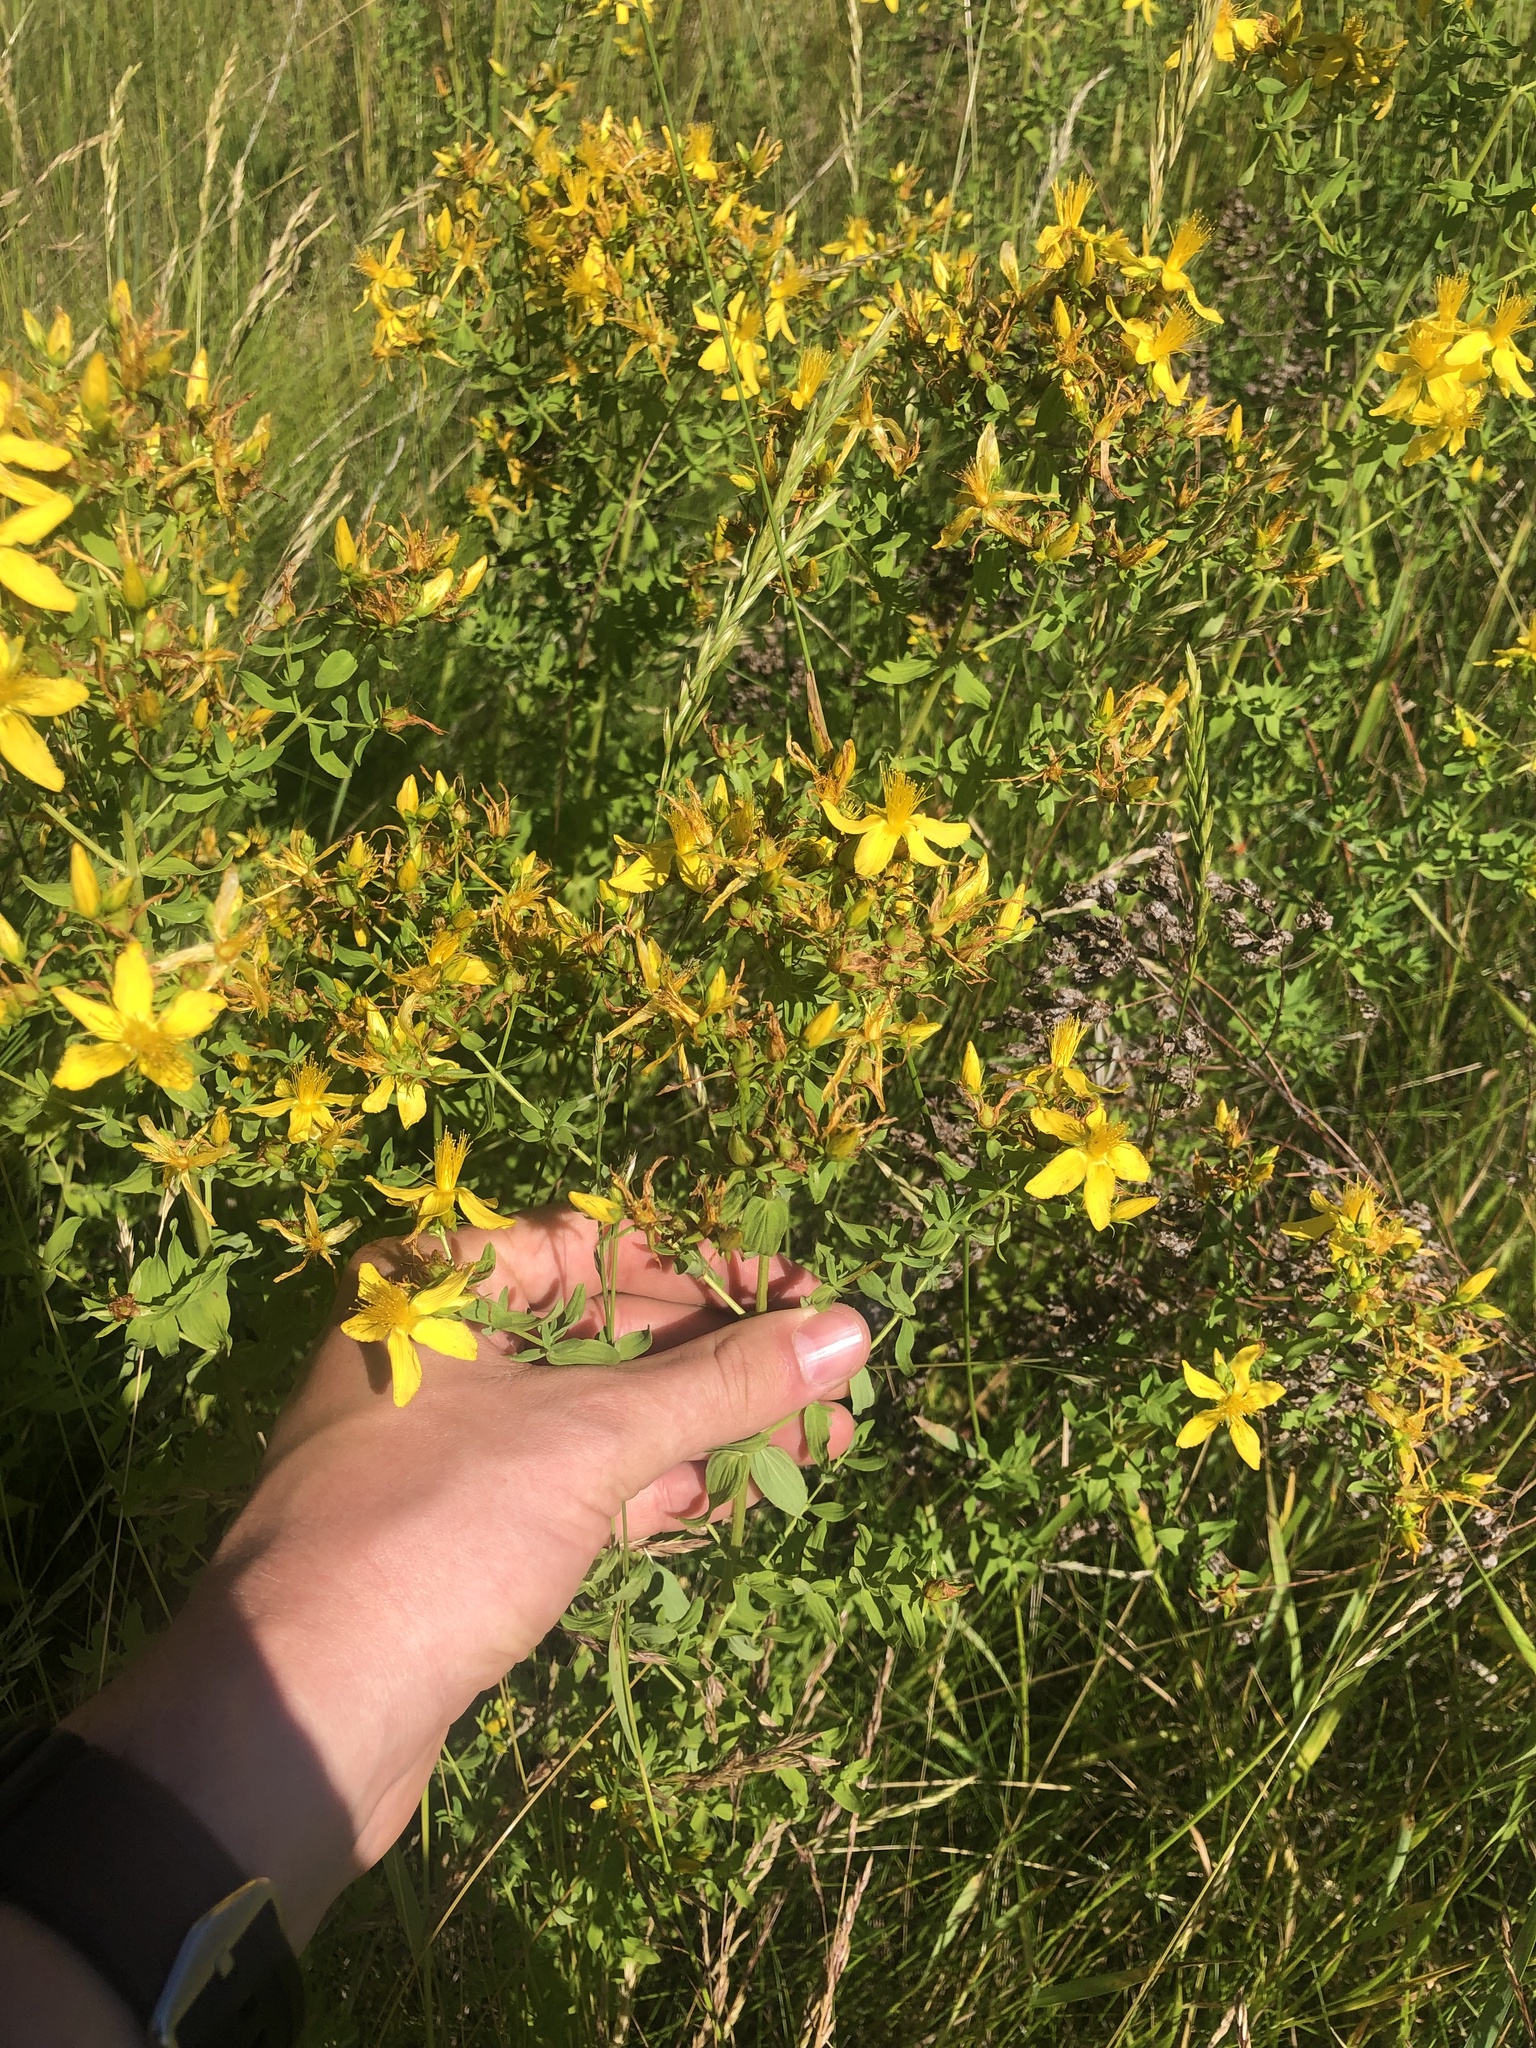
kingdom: Plantae
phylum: Tracheophyta
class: Magnoliopsida
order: Malpighiales
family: Hypericaceae
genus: Hypericum
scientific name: Hypericum perforatum
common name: Common st. johnswort
